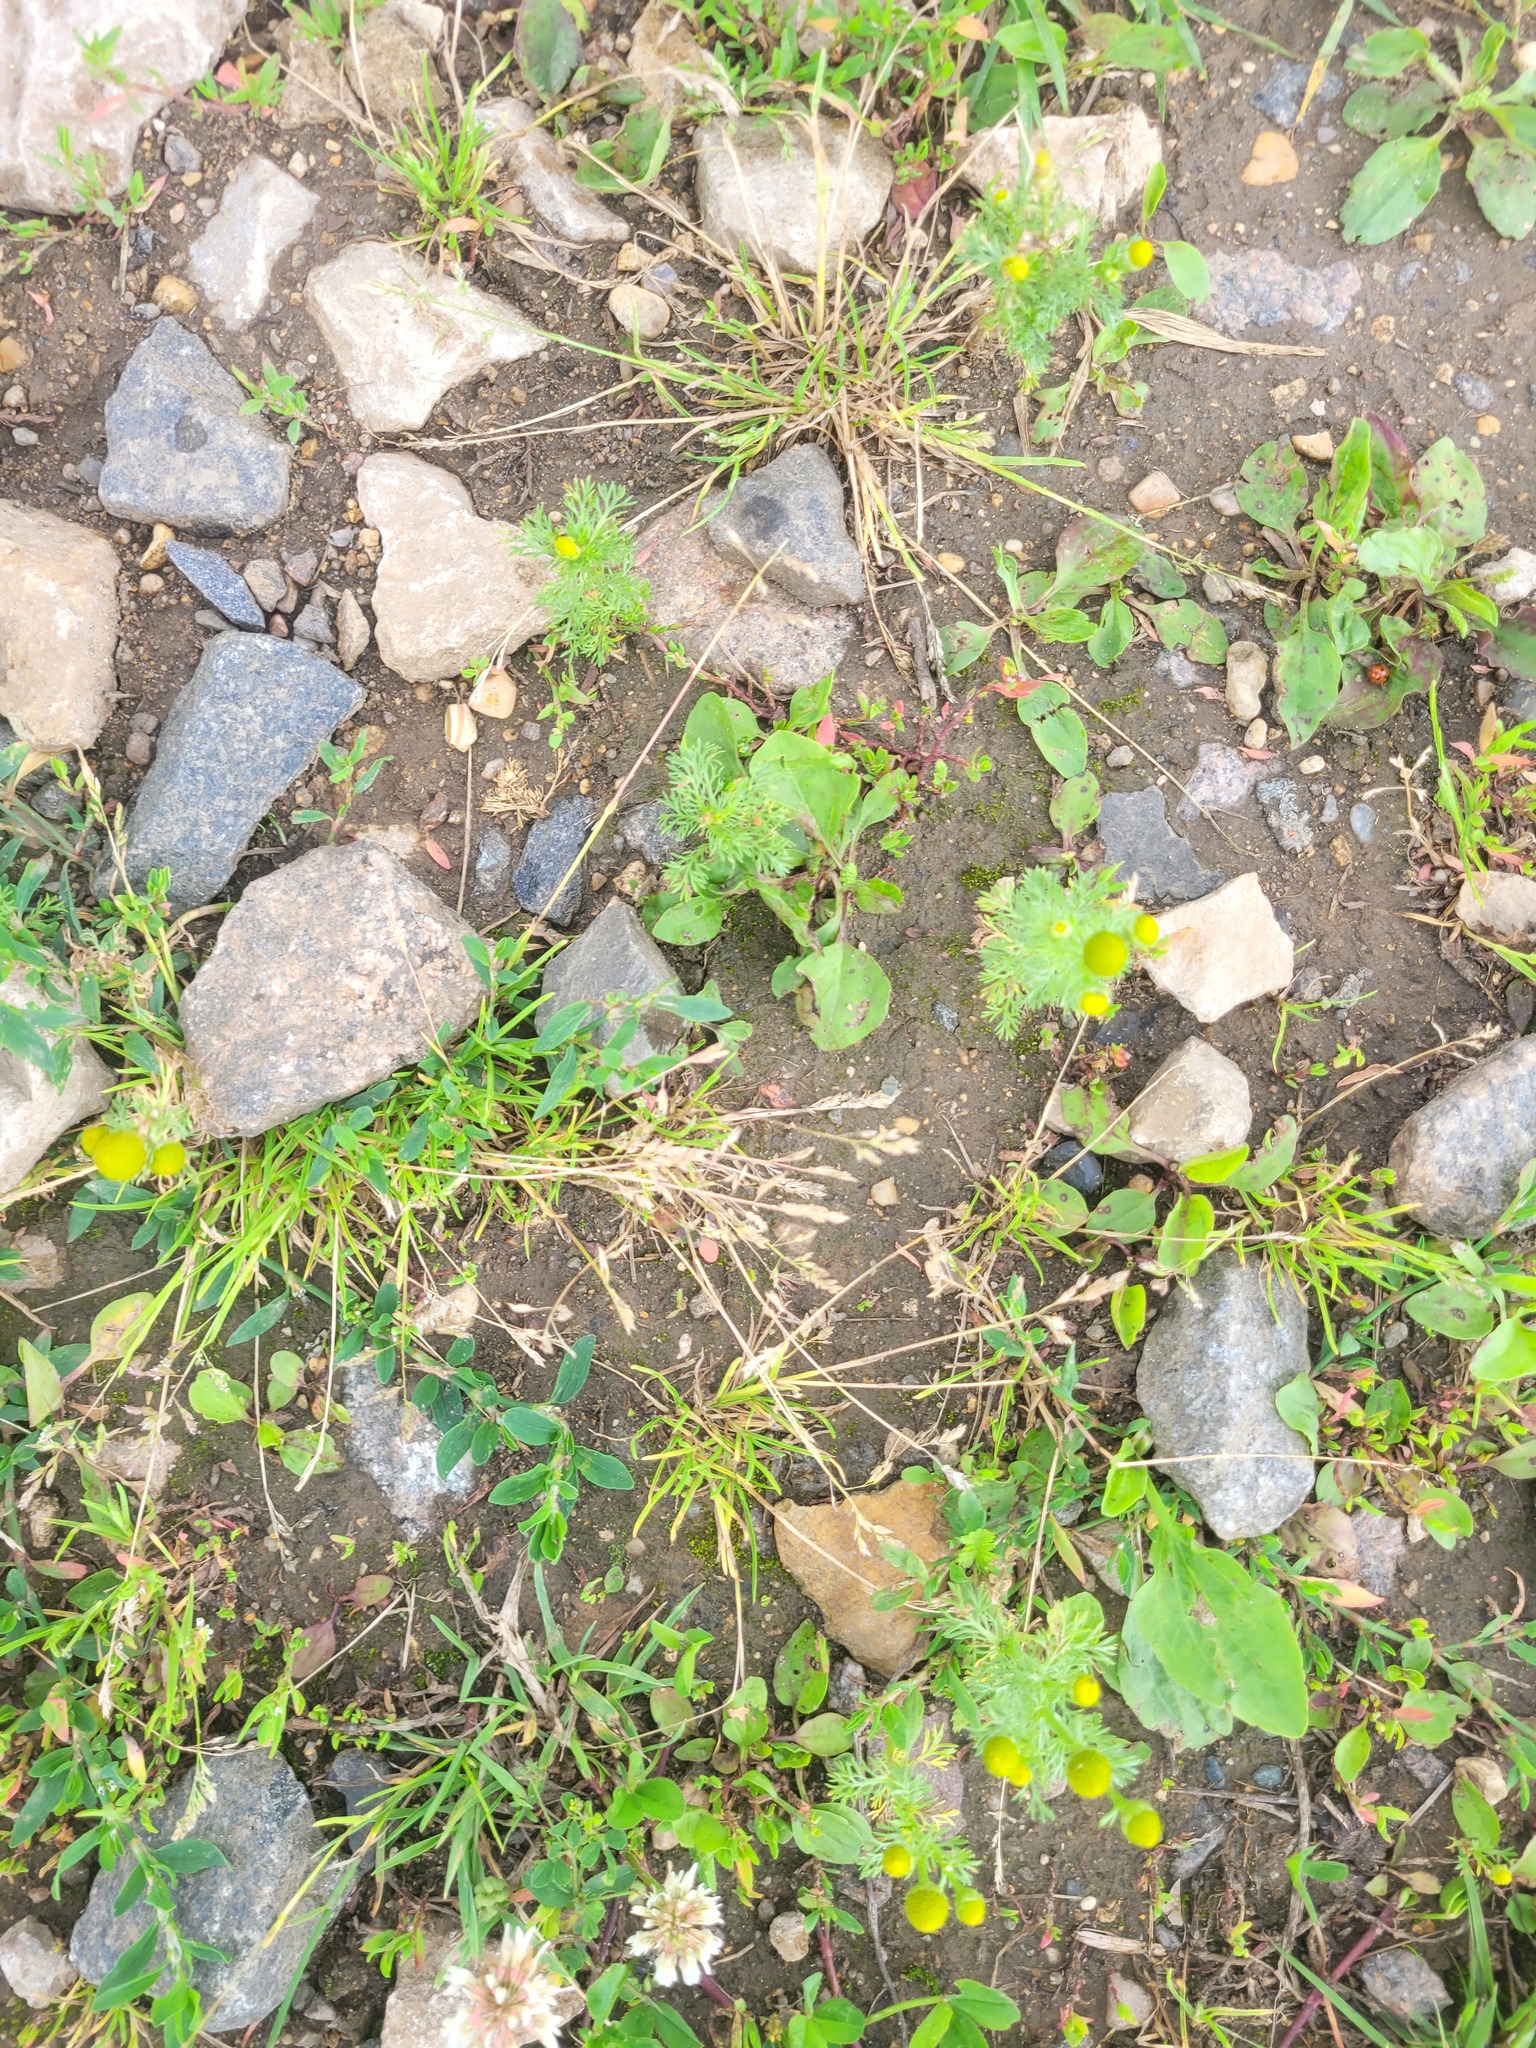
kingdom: Plantae
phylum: Tracheophyta
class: Liliopsida
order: Poales
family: Poaceae
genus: Poa
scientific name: Poa annua
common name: Annual bluegrass
